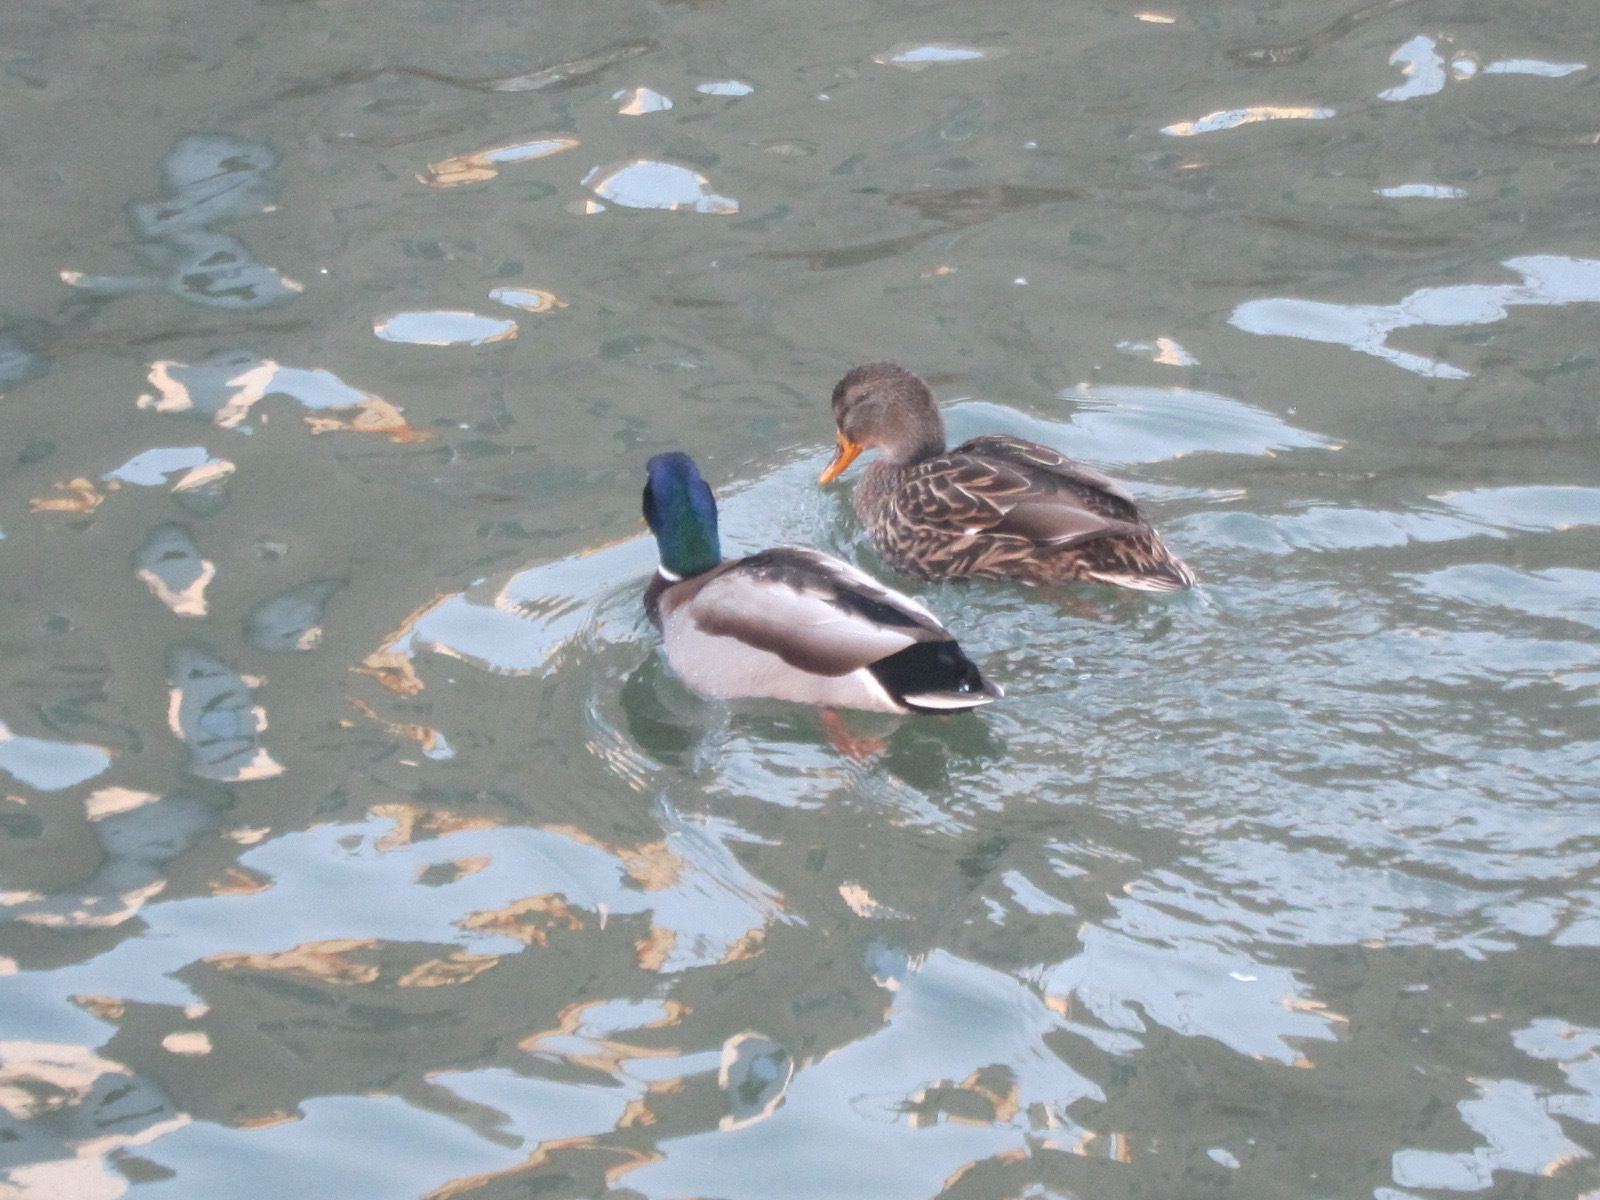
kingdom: Animalia
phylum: Chordata
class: Aves
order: Anseriformes
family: Anatidae
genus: Anas
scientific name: Anas platyrhynchos
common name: Mallard
